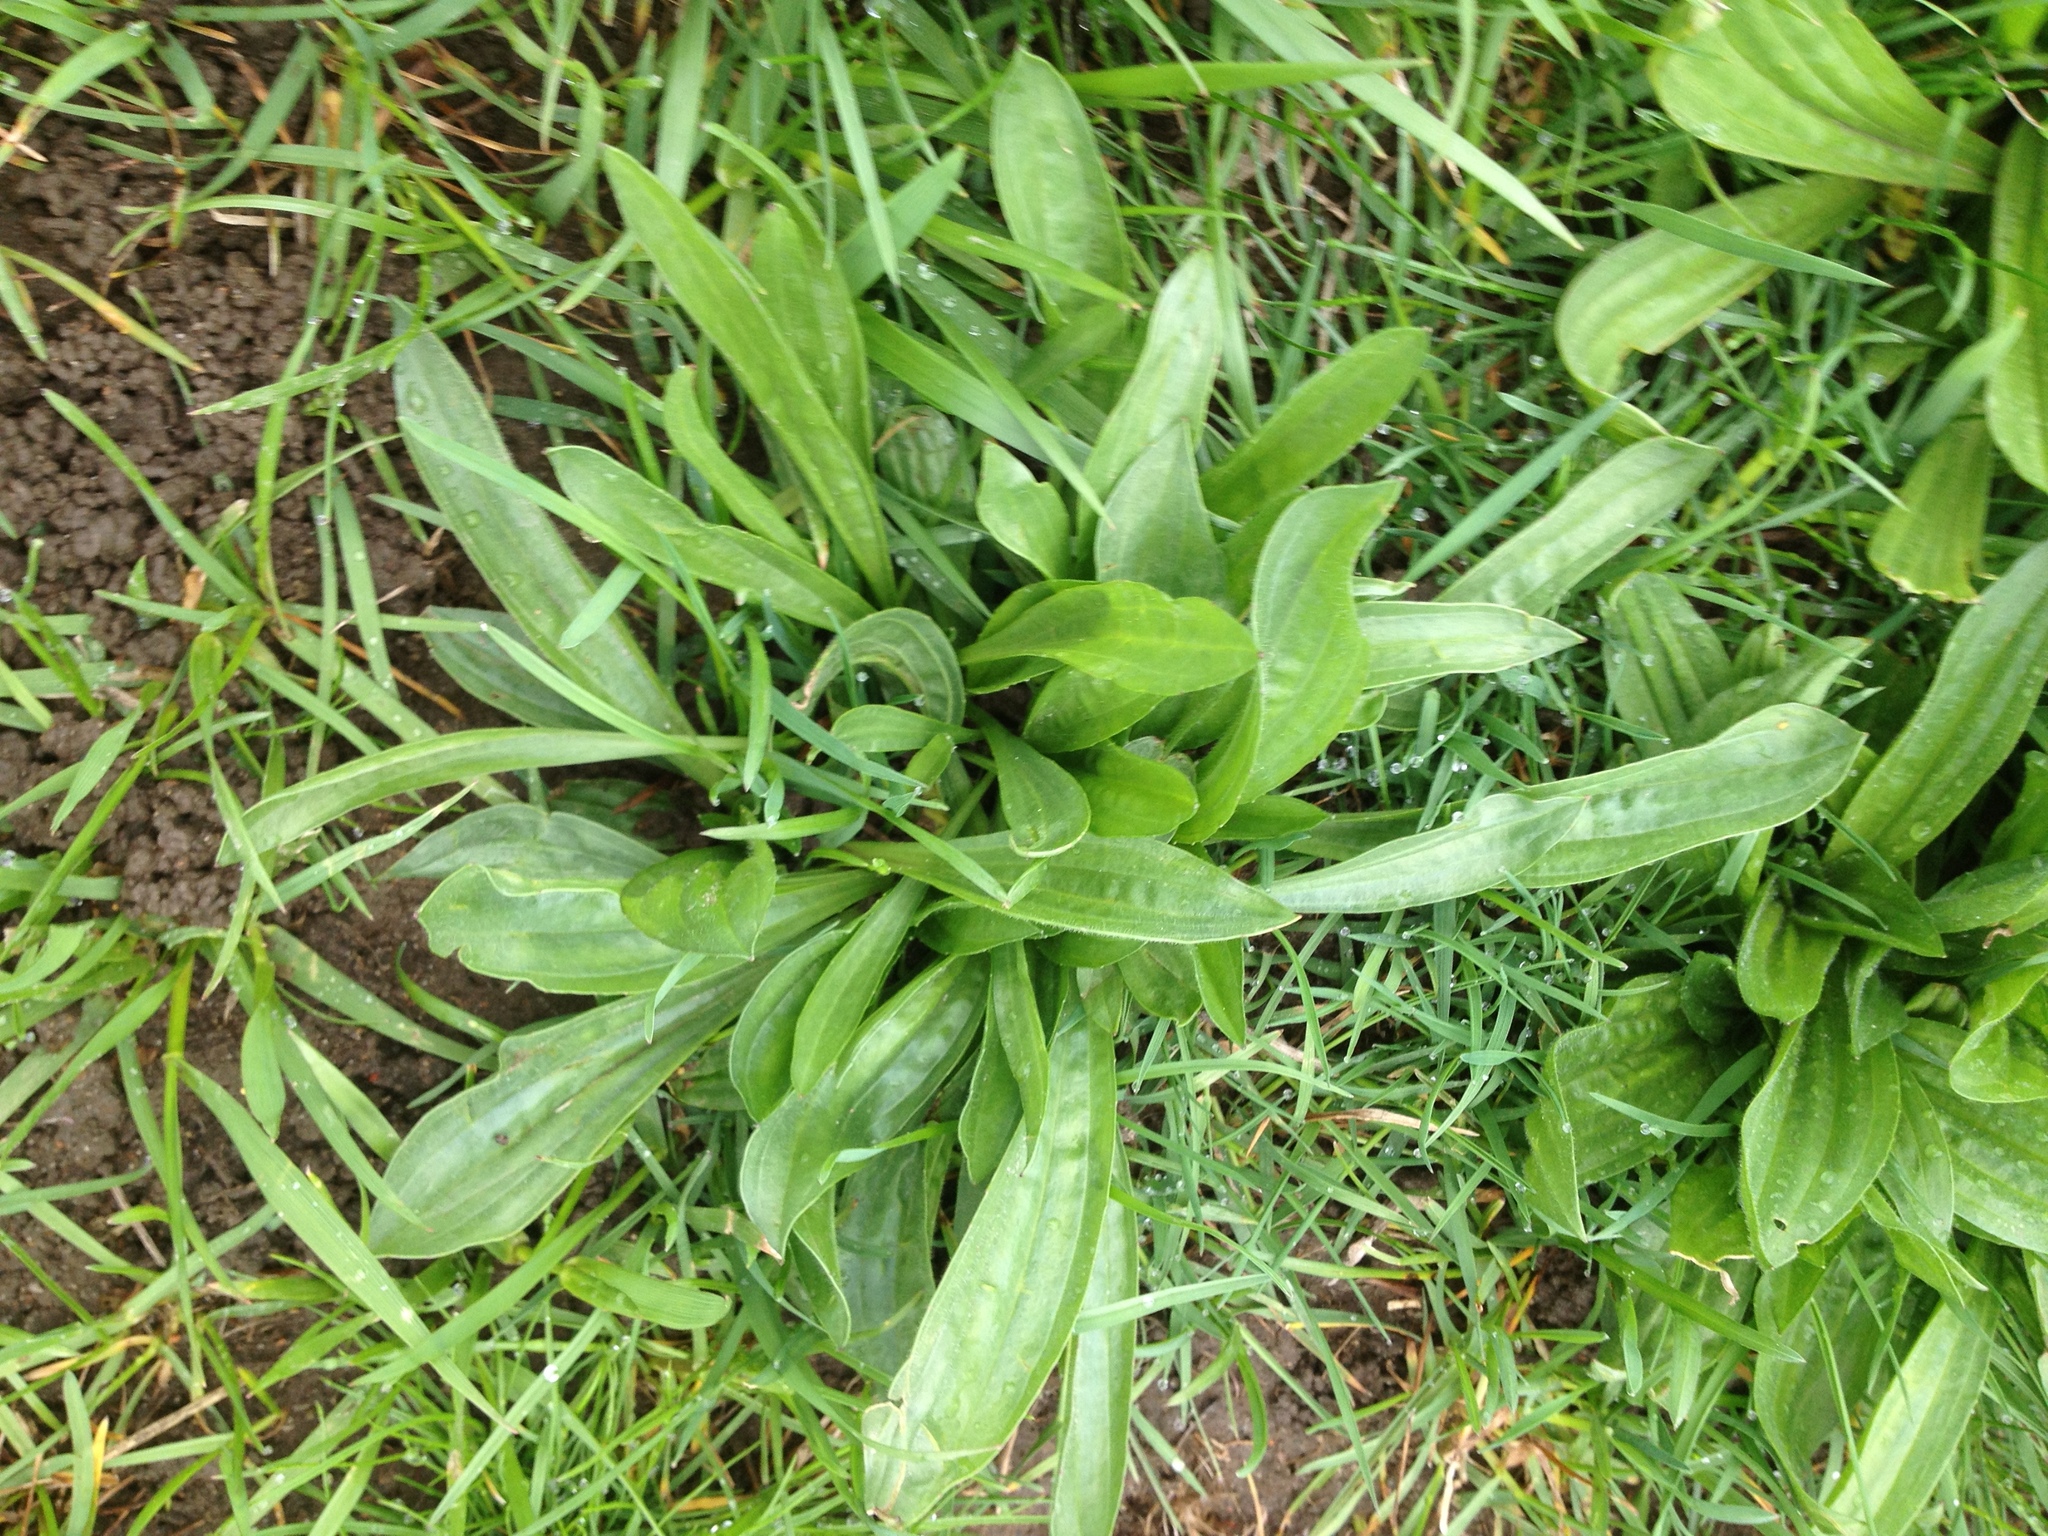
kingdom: Plantae
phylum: Tracheophyta
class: Magnoliopsida
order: Lamiales
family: Plantaginaceae
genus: Plantago
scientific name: Plantago lanceolata
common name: Ribwort plantain
